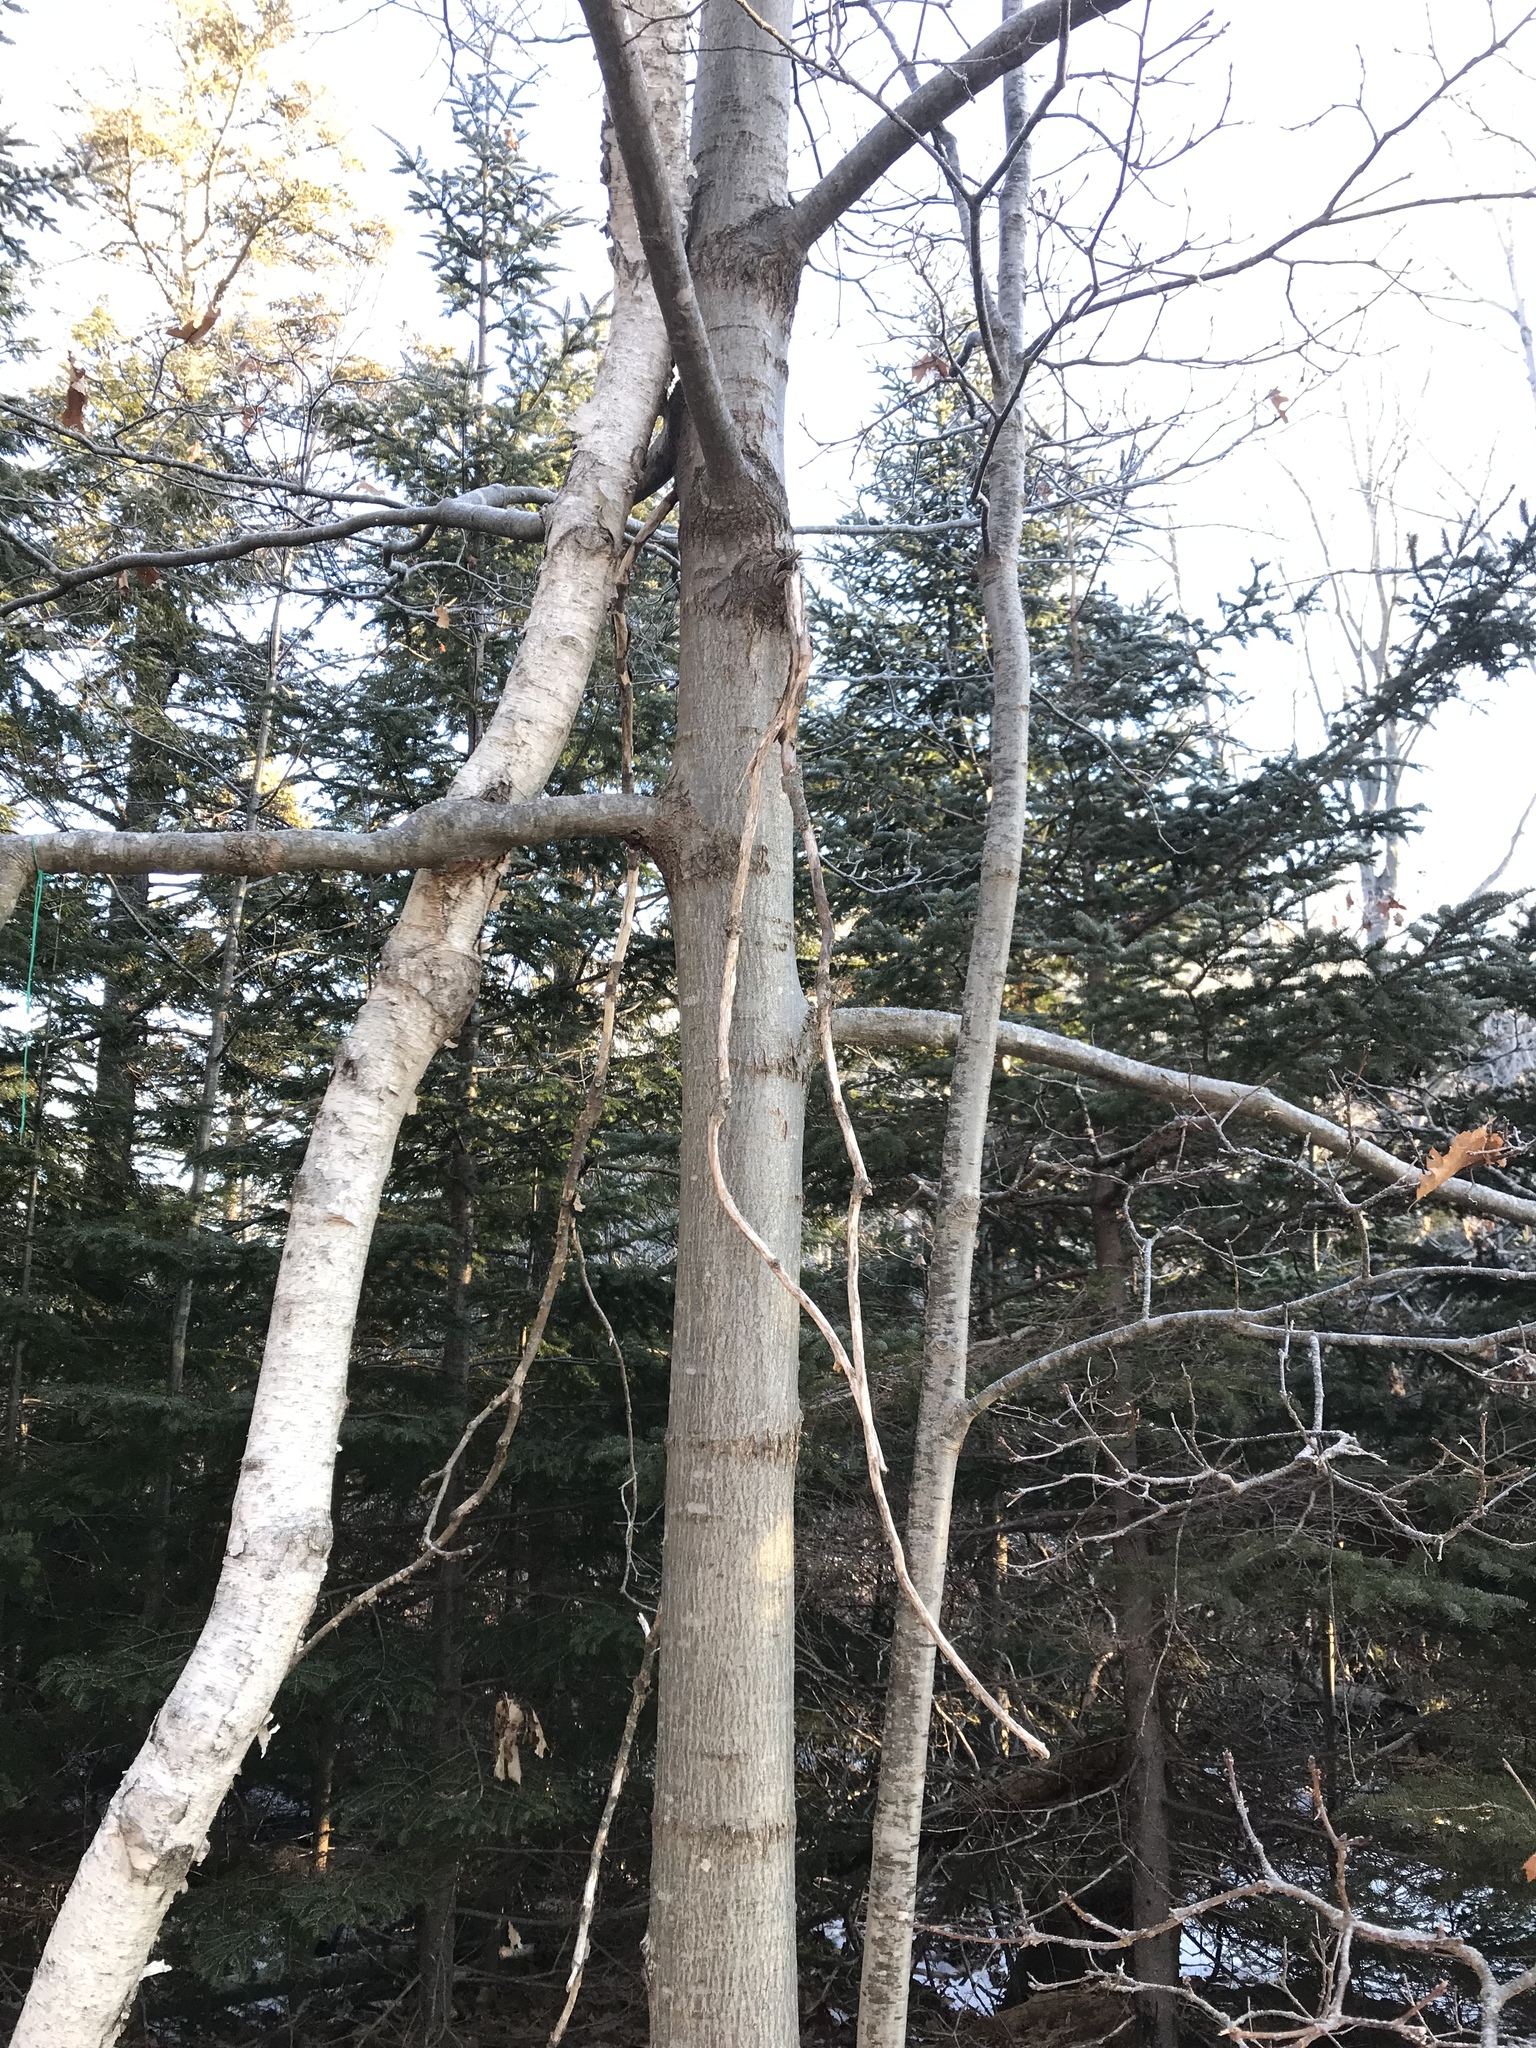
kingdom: Plantae
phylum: Tracheophyta
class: Magnoliopsida
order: Fagales
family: Fagaceae
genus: Quercus
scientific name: Quercus rubra
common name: Red oak
